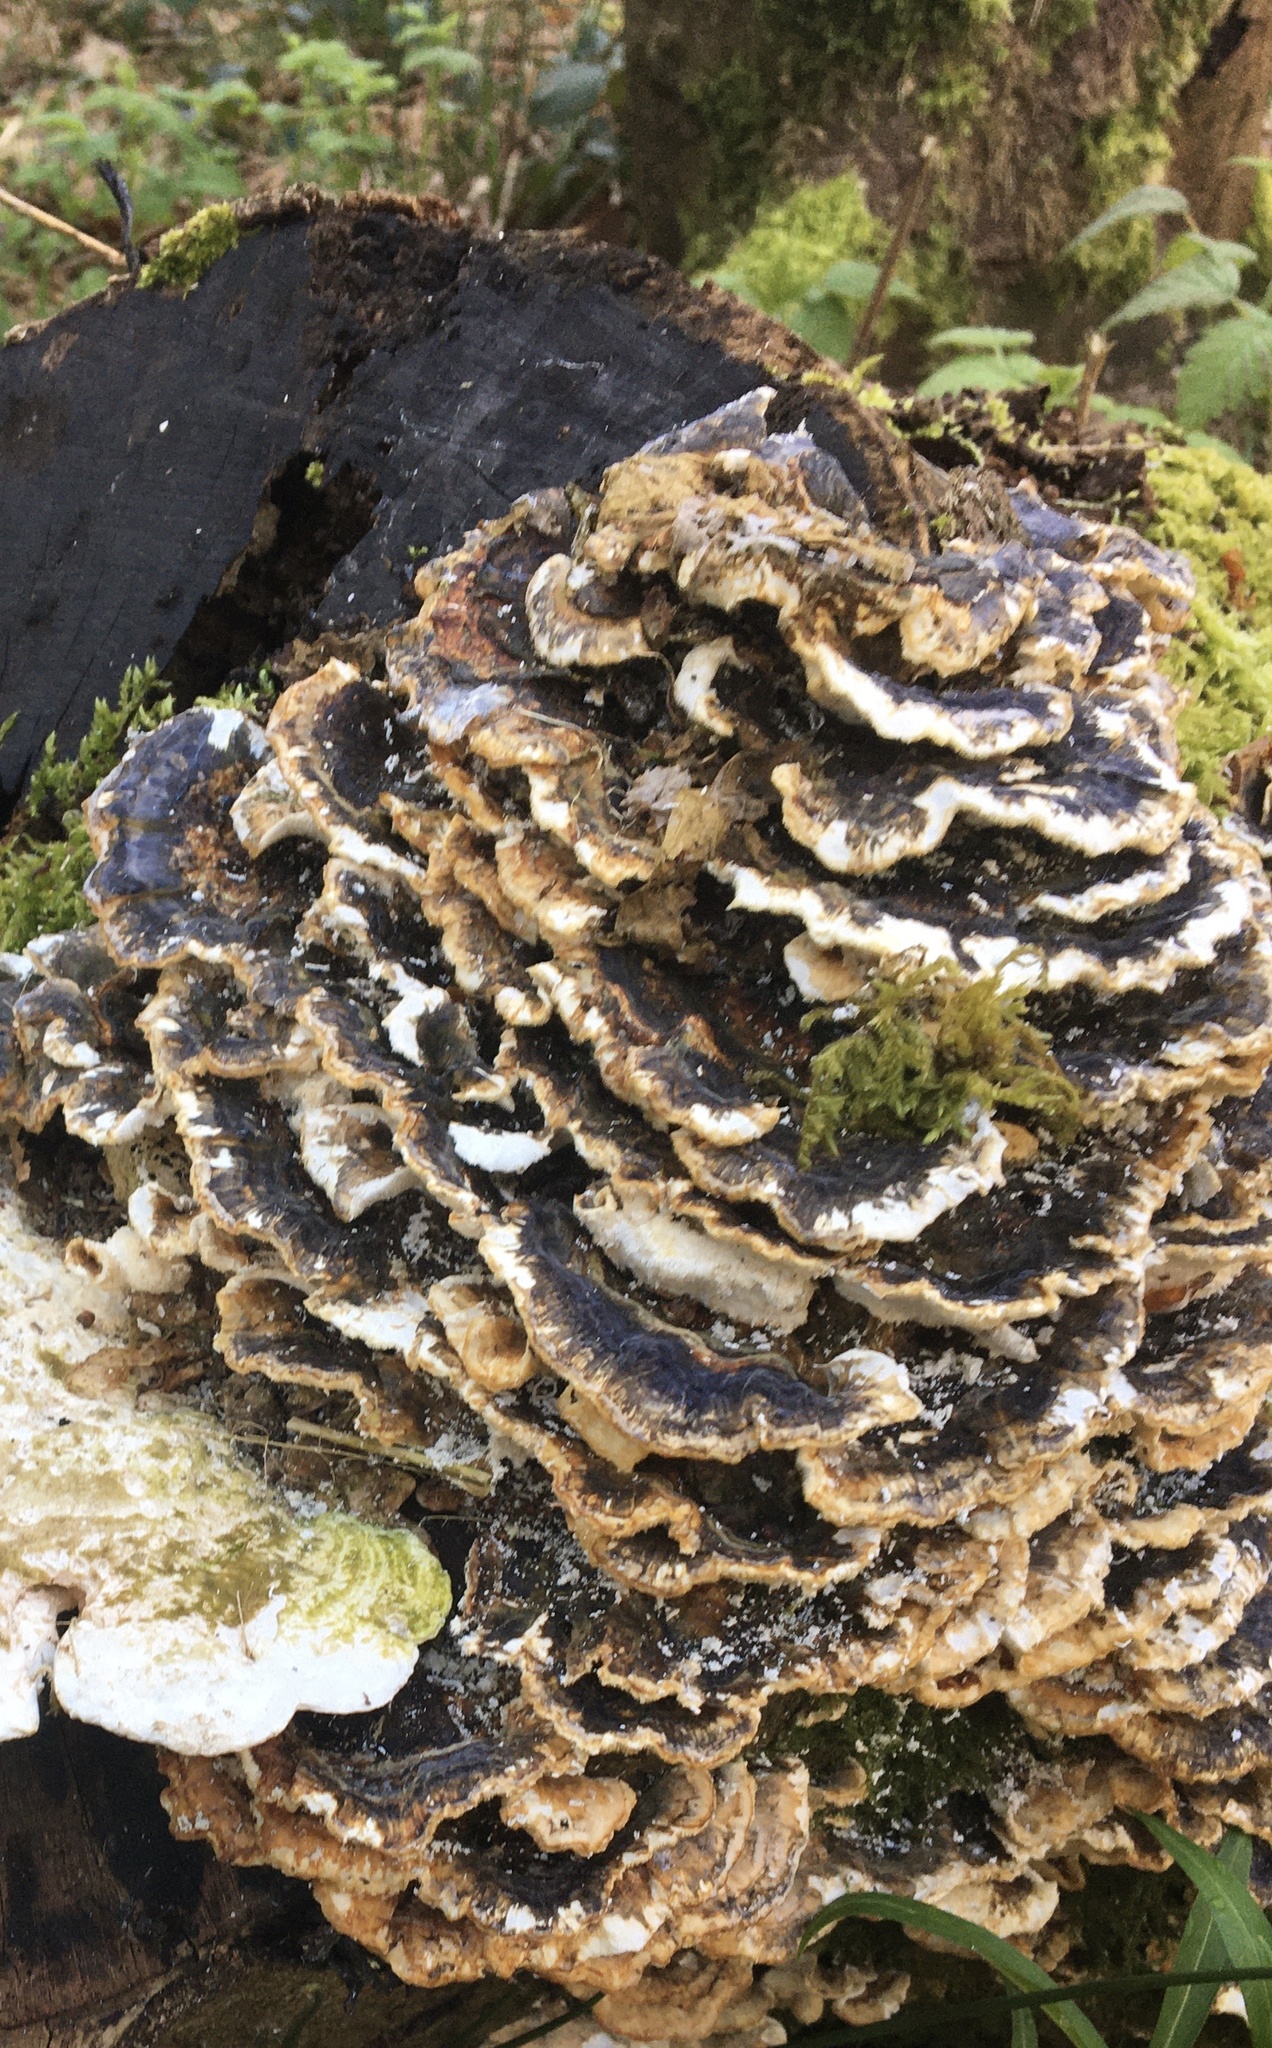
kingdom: Fungi
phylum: Basidiomycota
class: Agaricomycetes
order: Polyporales
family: Polyporaceae
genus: Trametes
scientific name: Trametes versicolor
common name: Turkeytail
